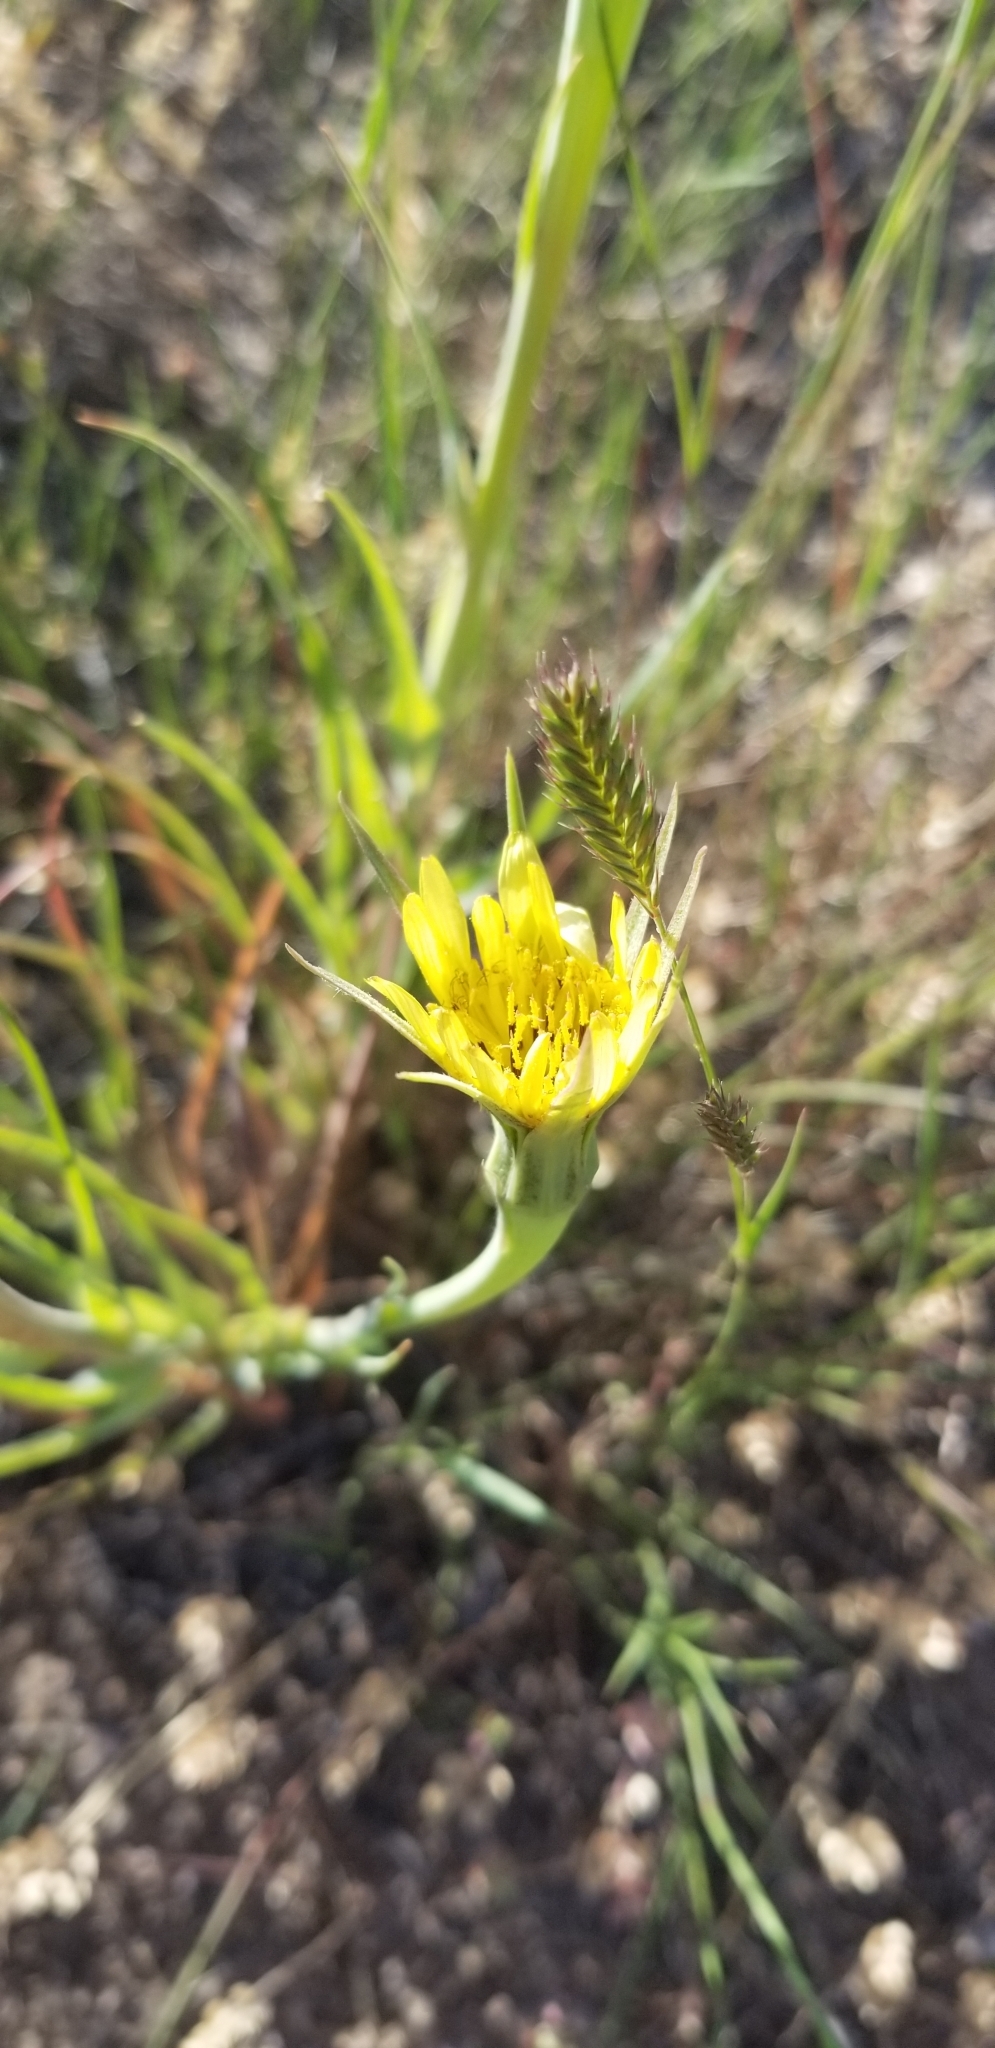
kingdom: Plantae
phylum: Tracheophyta
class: Magnoliopsida
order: Asterales
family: Asteraceae
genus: Tragopogon
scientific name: Tragopogon dubius
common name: Yellow salsify
